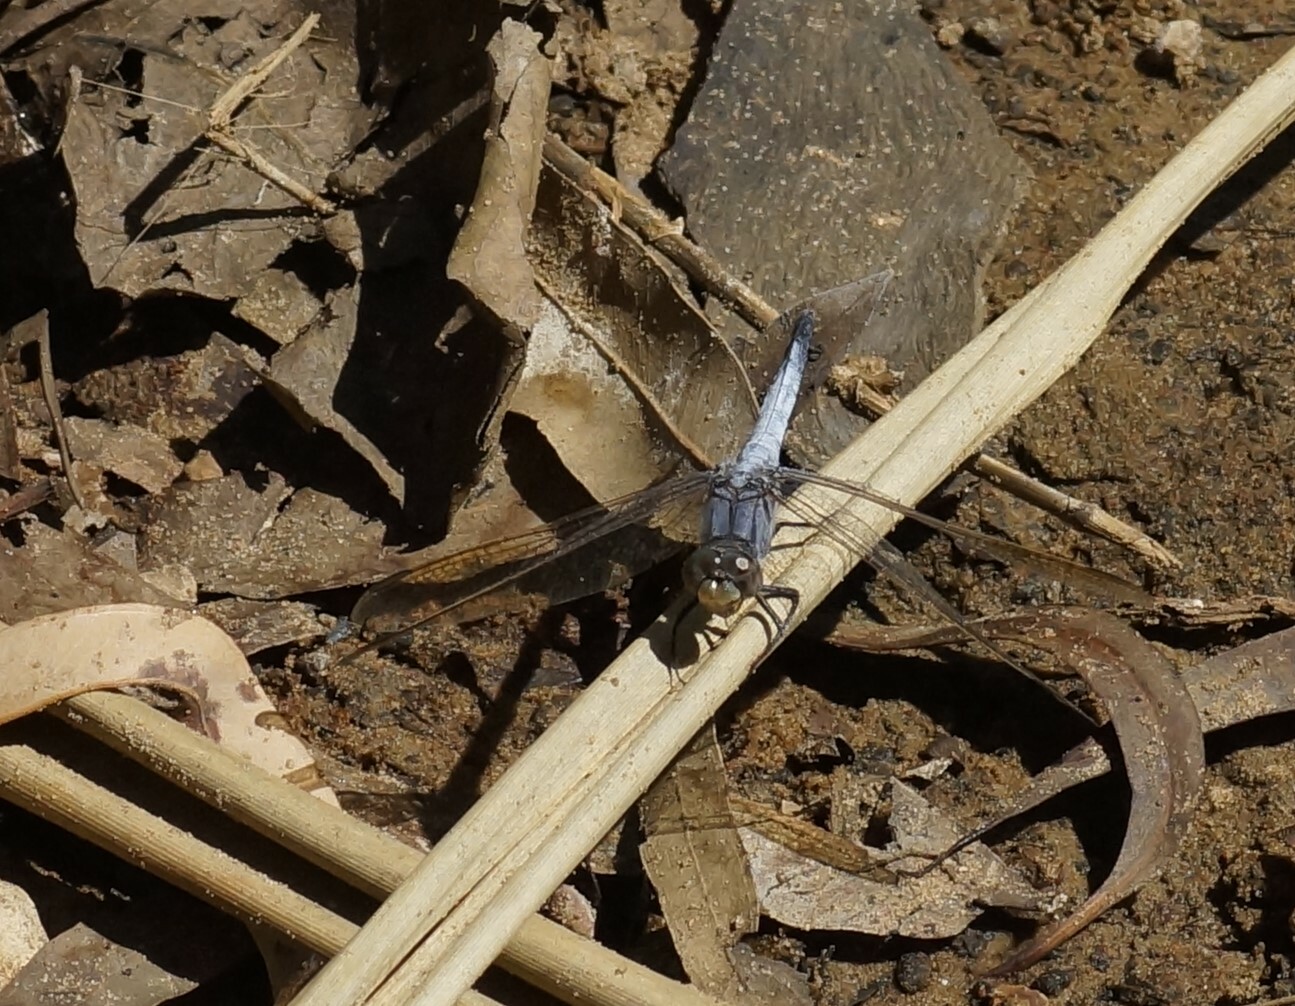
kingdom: Animalia
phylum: Arthropoda
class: Insecta
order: Odonata
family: Libellulidae
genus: Orthetrum
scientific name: Orthetrum caledonicum
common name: Blue skimmer
